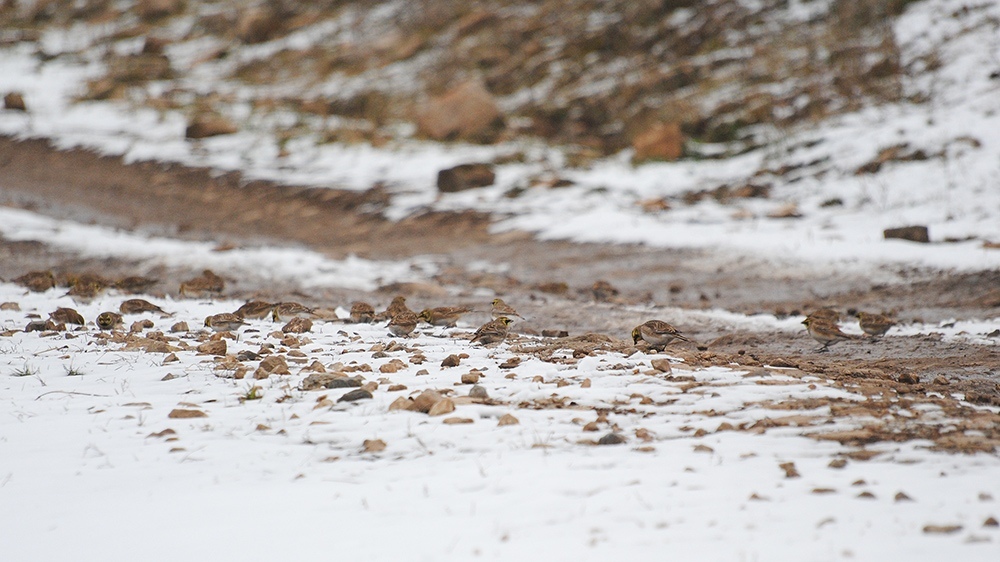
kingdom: Animalia
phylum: Chordata
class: Aves
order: Passeriformes
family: Alaudidae
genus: Eremophila
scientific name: Eremophila alpestris
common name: Horned lark
